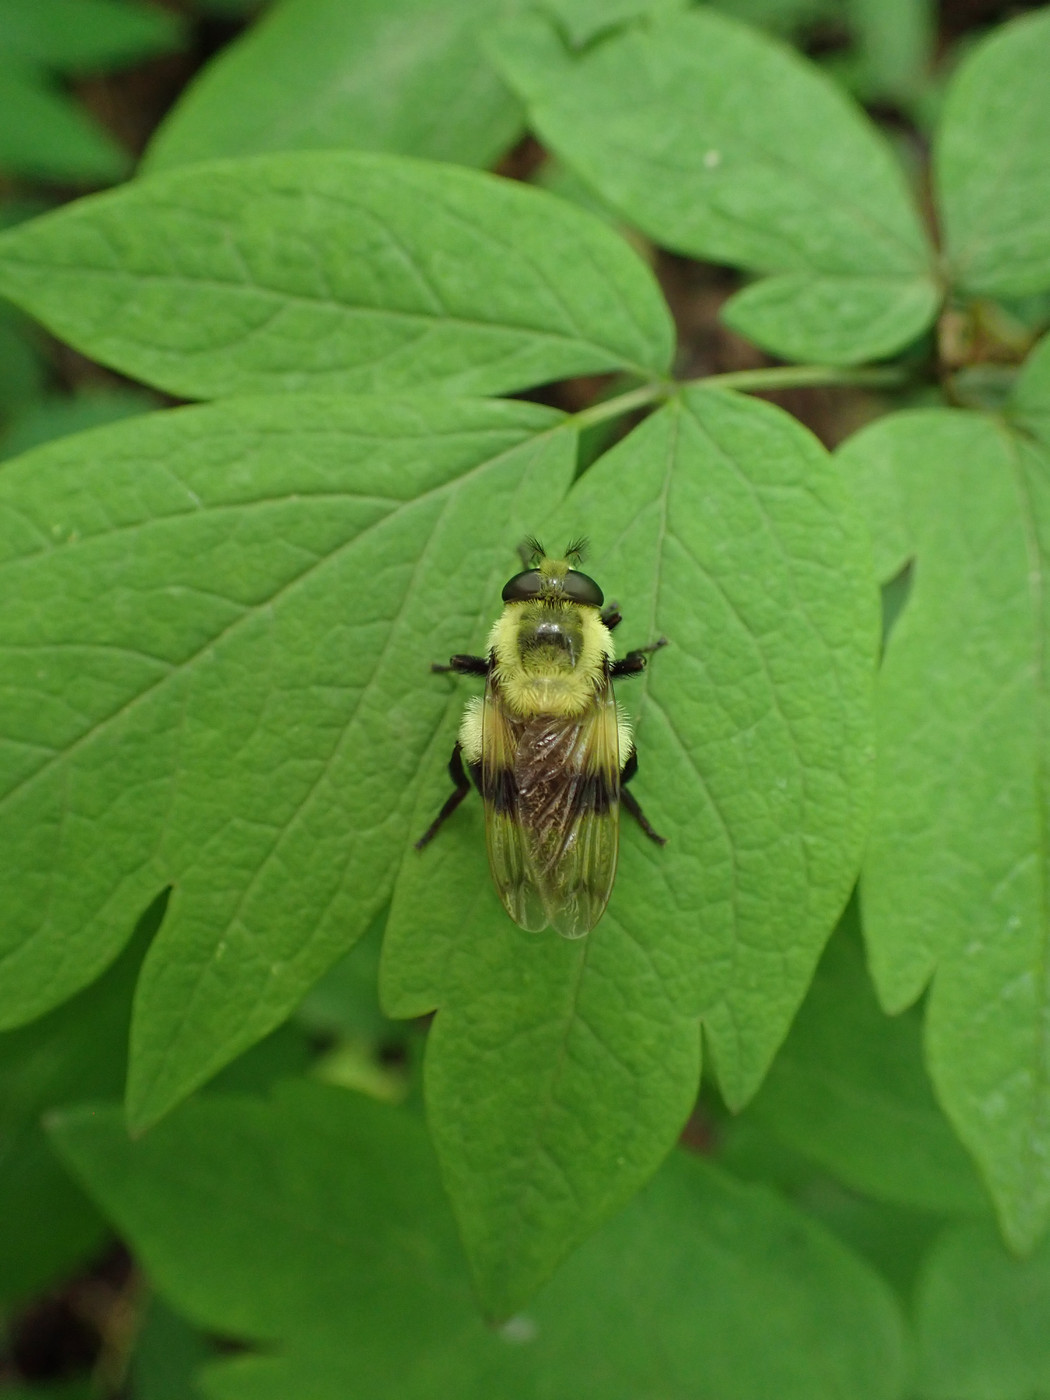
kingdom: Animalia
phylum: Arthropoda
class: Insecta
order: Diptera
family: Syrphidae
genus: Volucella
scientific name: Volucella evecta
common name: Eastern swiftwing
